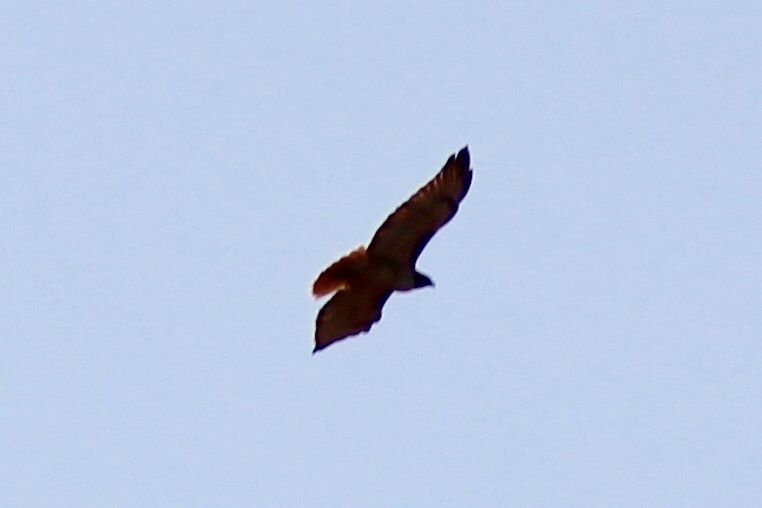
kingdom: Animalia
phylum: Chordata
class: Aves
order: Accipitriformes
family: Accipitridae
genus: Buteo
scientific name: Buteo jamaicensis
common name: Red-tailed hawk
